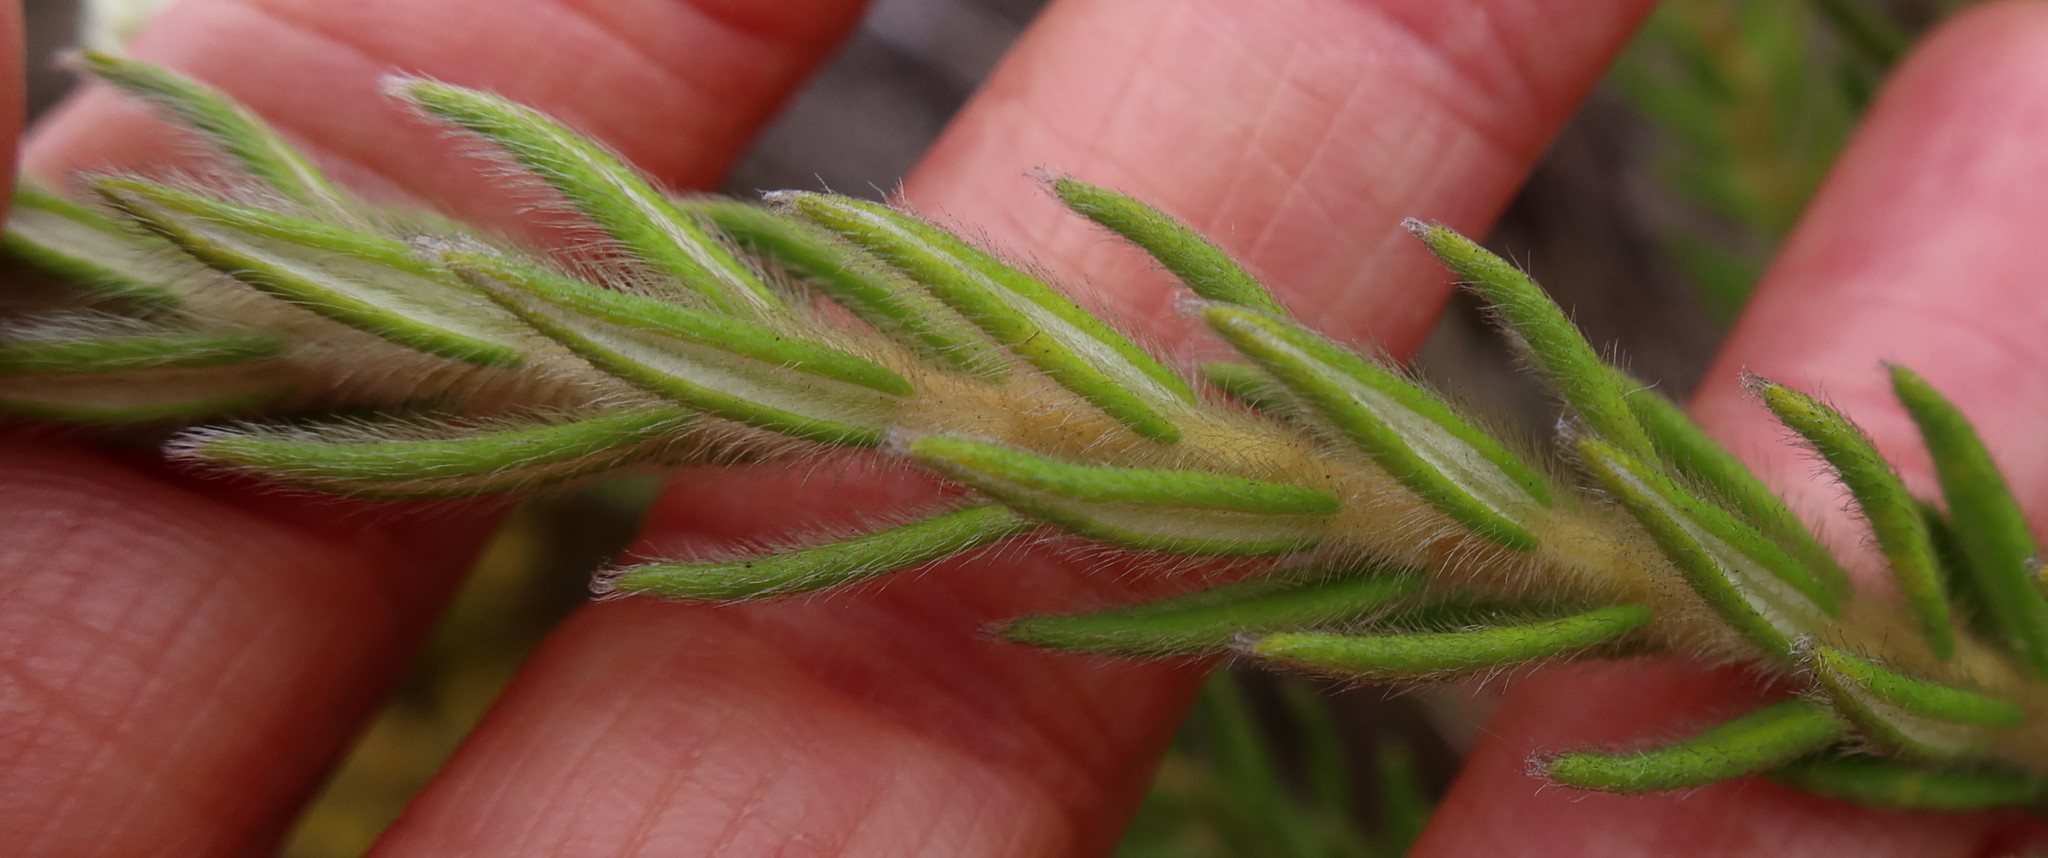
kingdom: Plantae
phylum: Tracheophyta
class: Magnoliopsida
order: Rosales
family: Rhamnaceae
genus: Phylica
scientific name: Phylica strigosa
